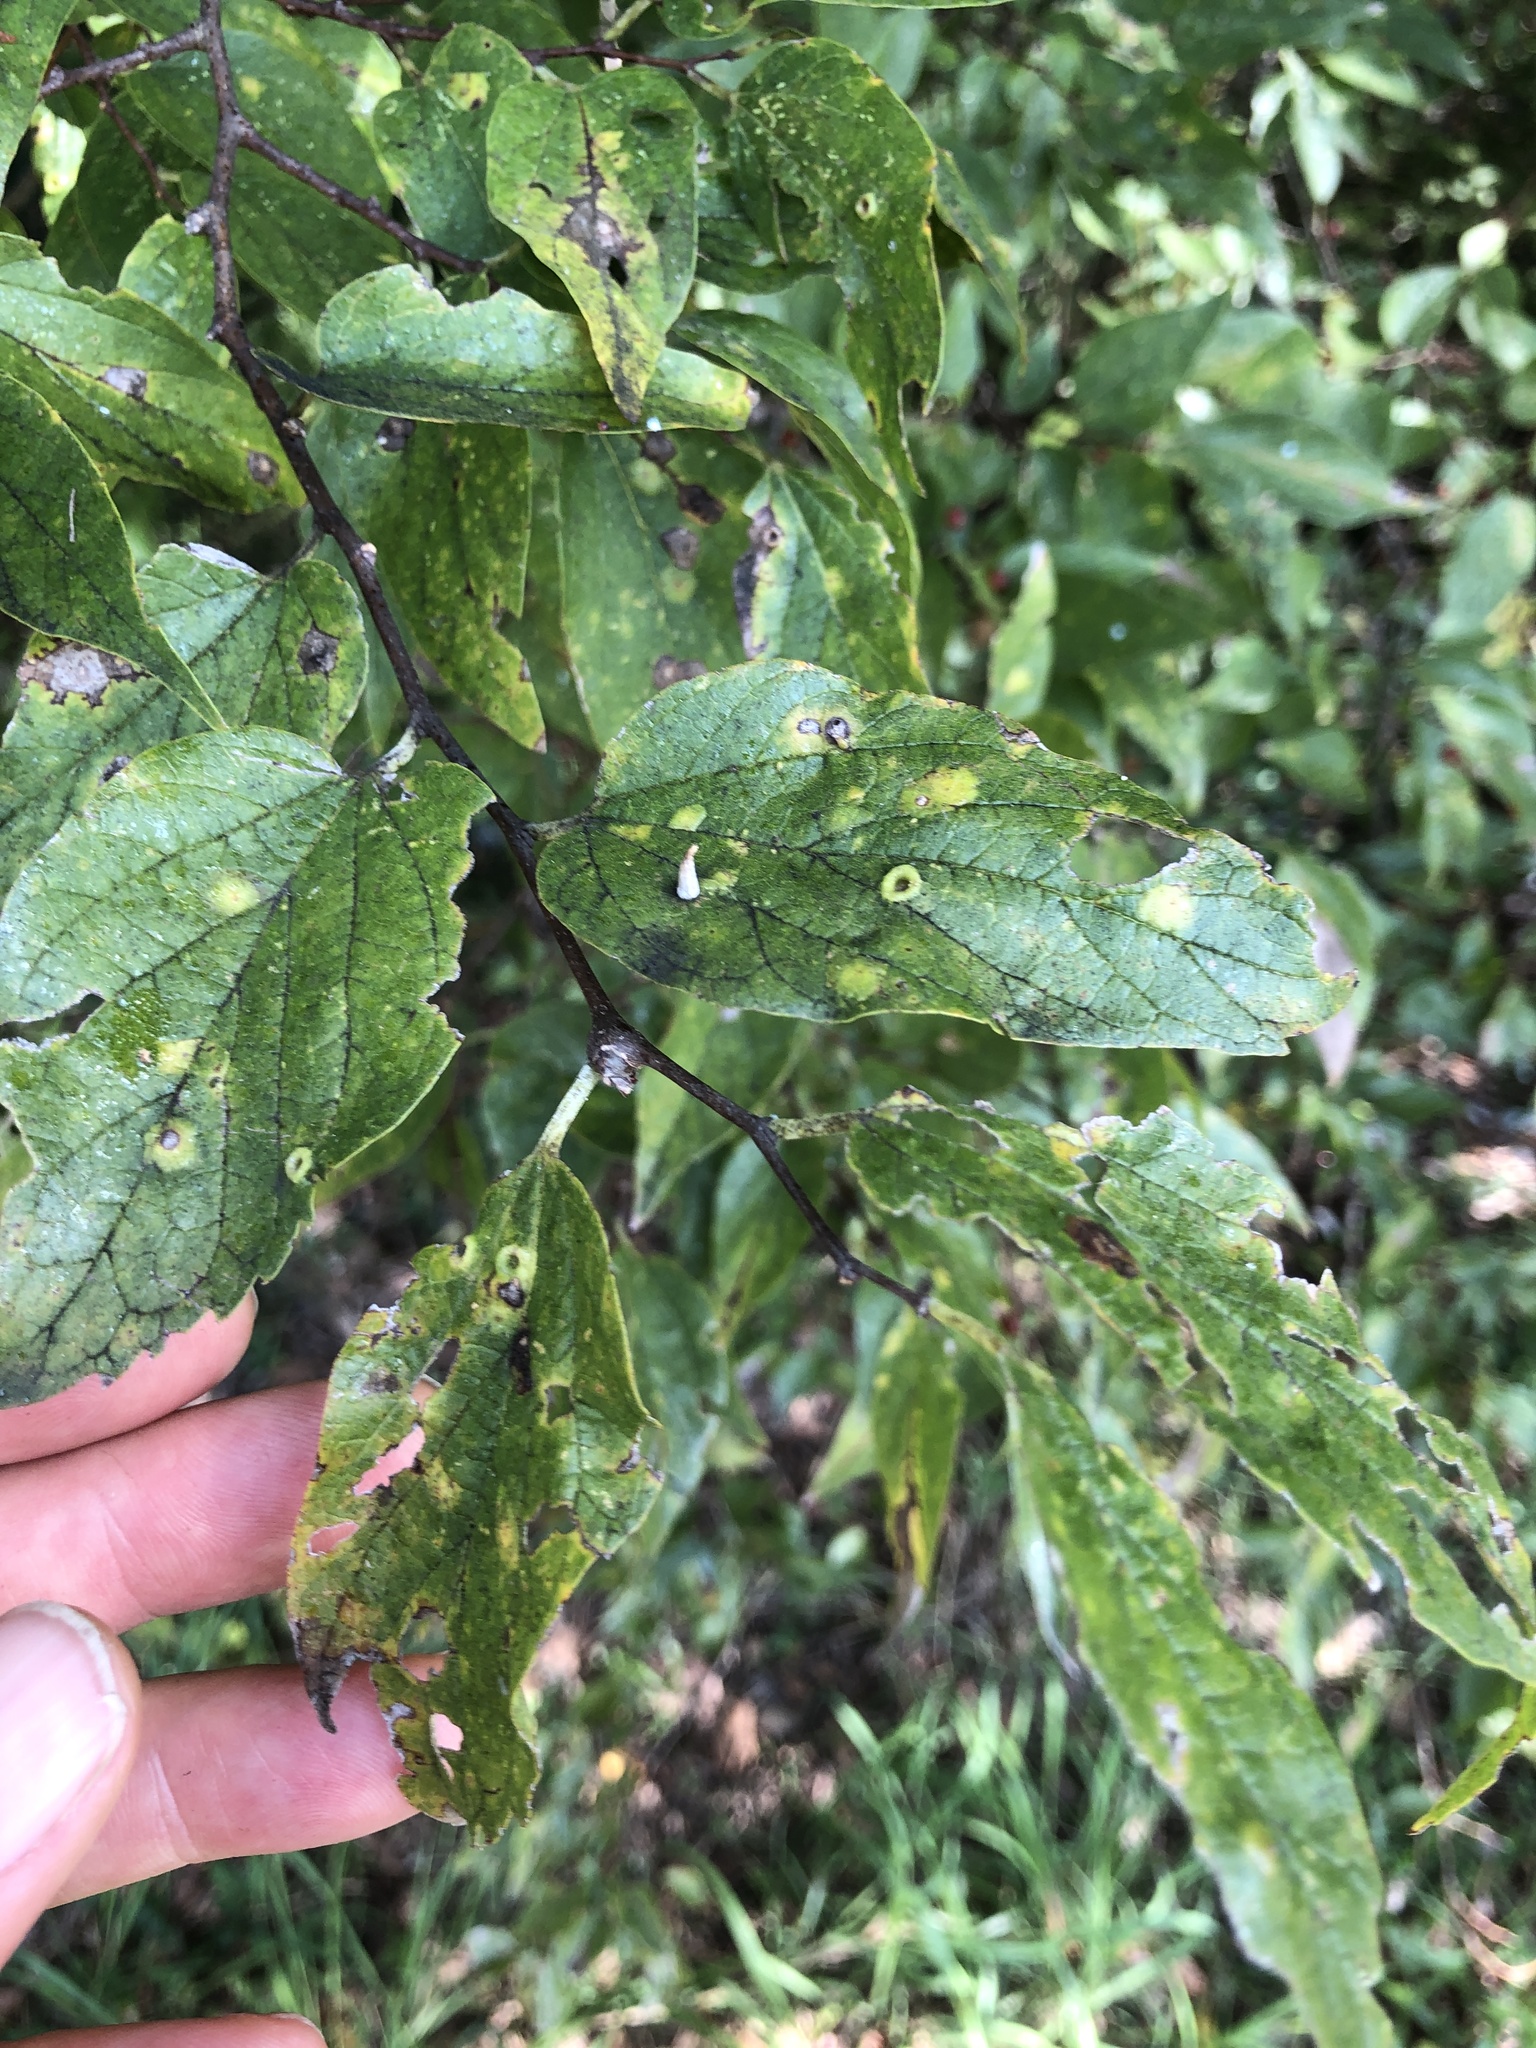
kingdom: Plantae
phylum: Tracheophyta
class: Magnoliopsida
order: Rosales
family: Cannabaceae
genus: Celtis
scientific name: Celtis laevigata
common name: Sugarberry
